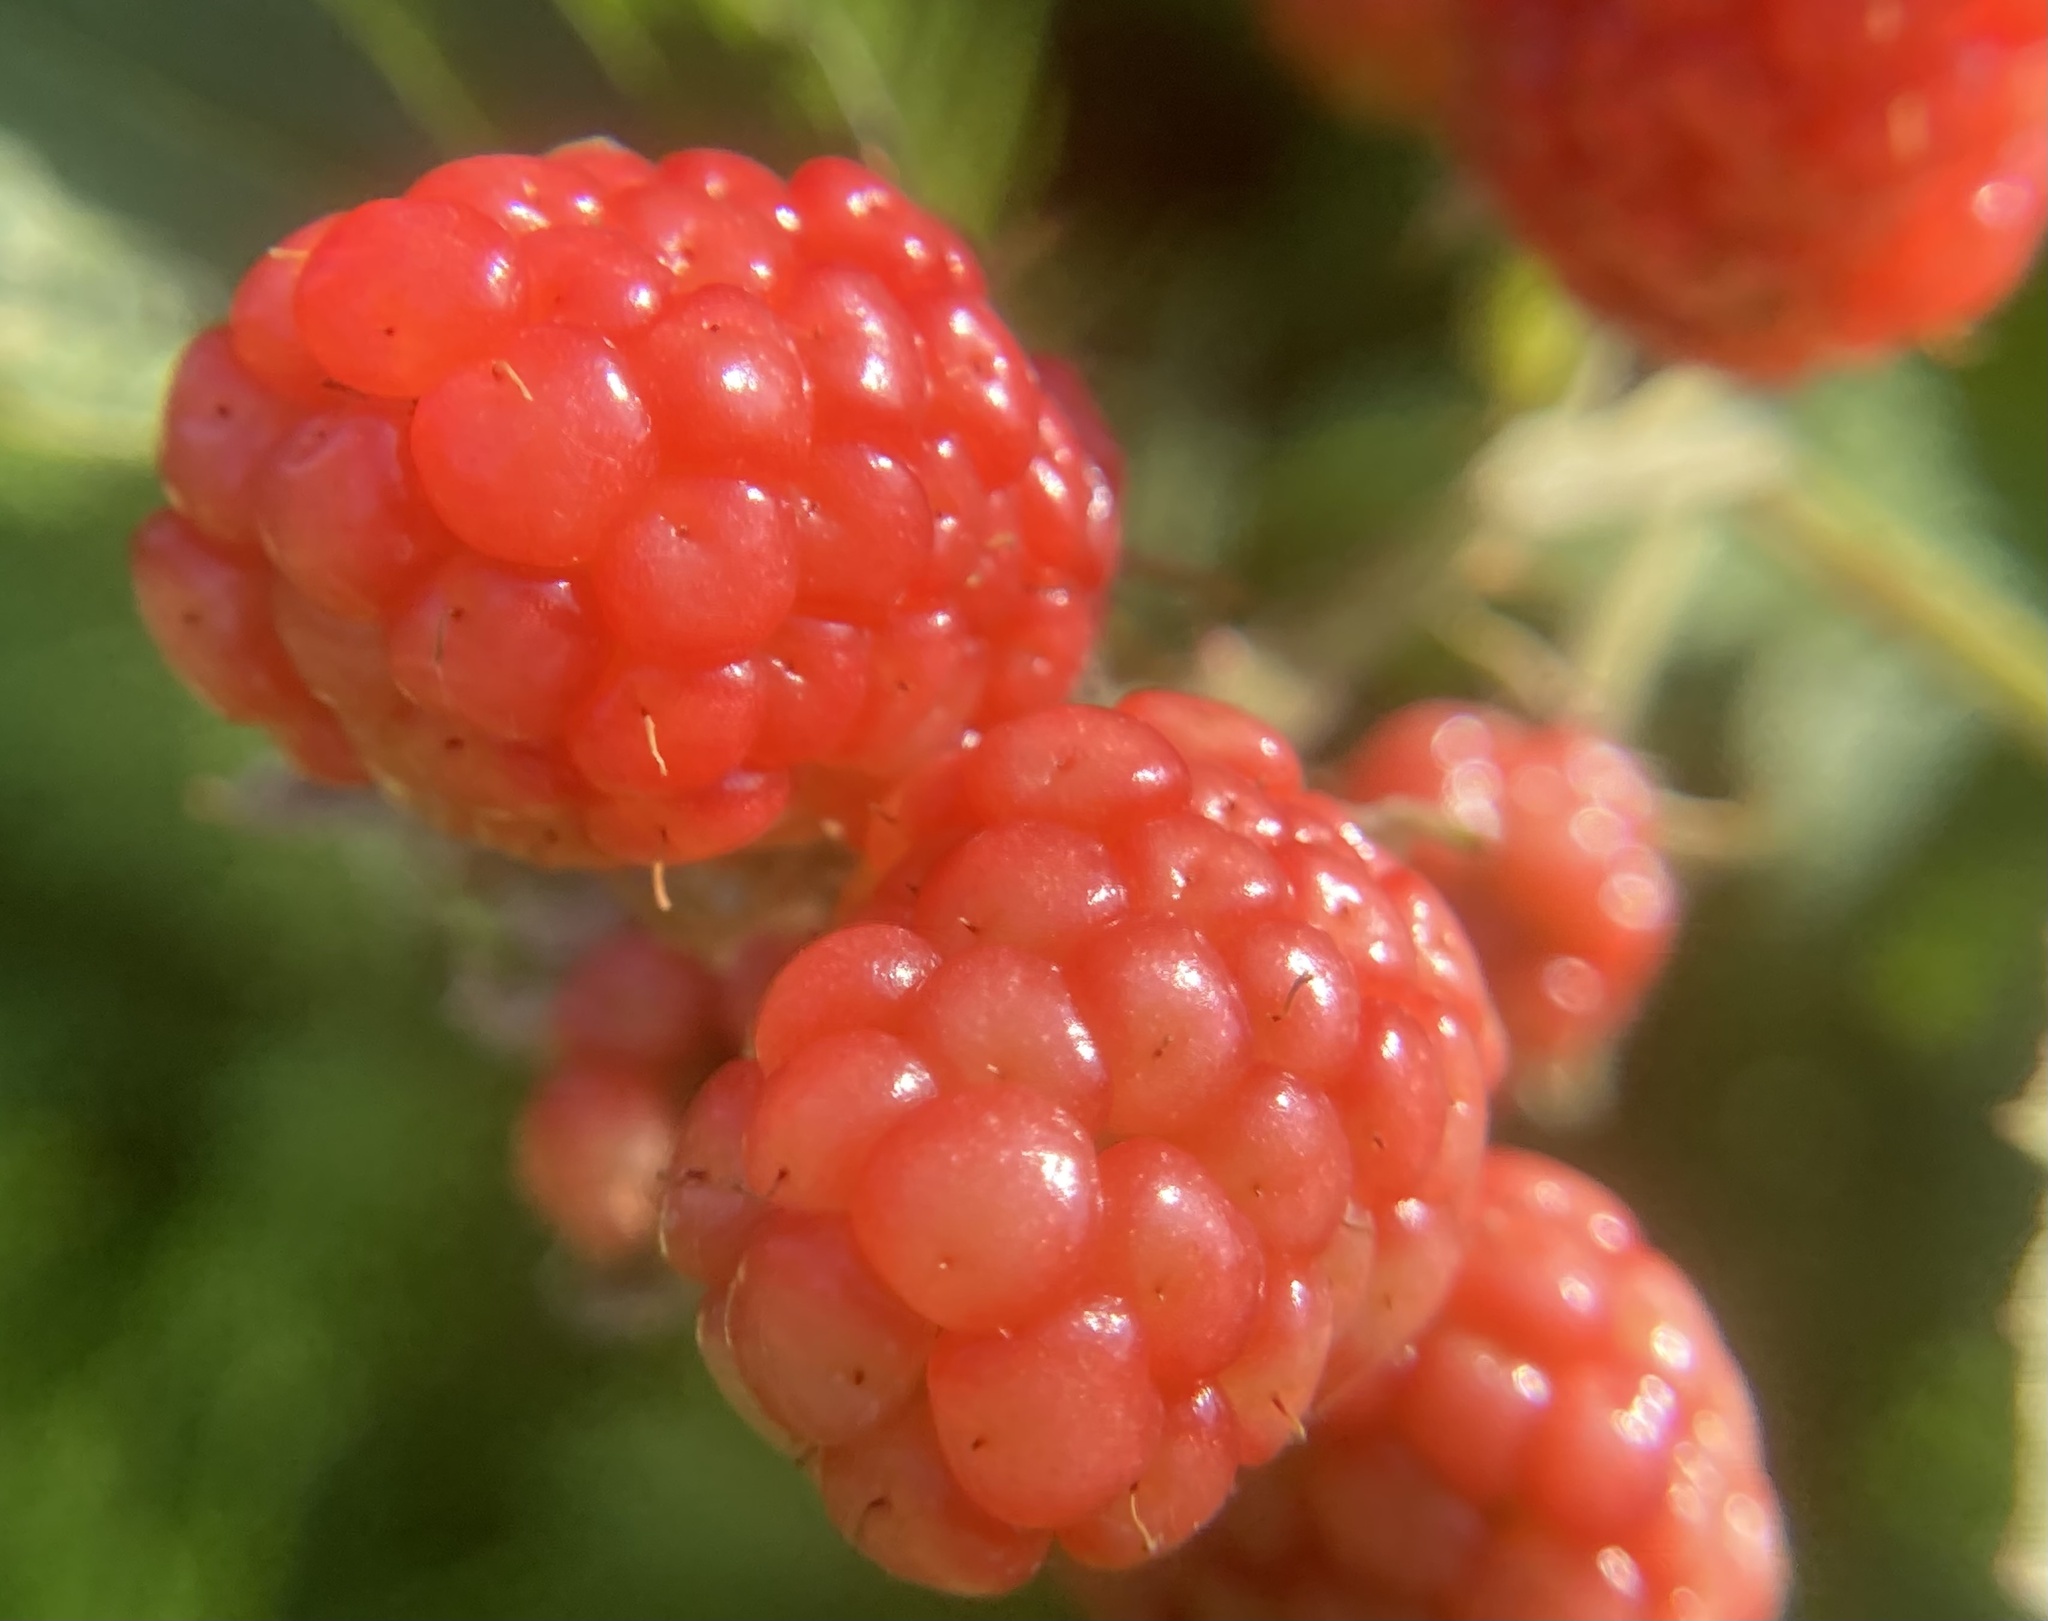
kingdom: Plantae
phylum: Tracheophyta
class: Magnoliopsida
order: Rosales
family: Rosaceae
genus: Rubus
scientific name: Rubus occidentalis
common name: Black raspberry
